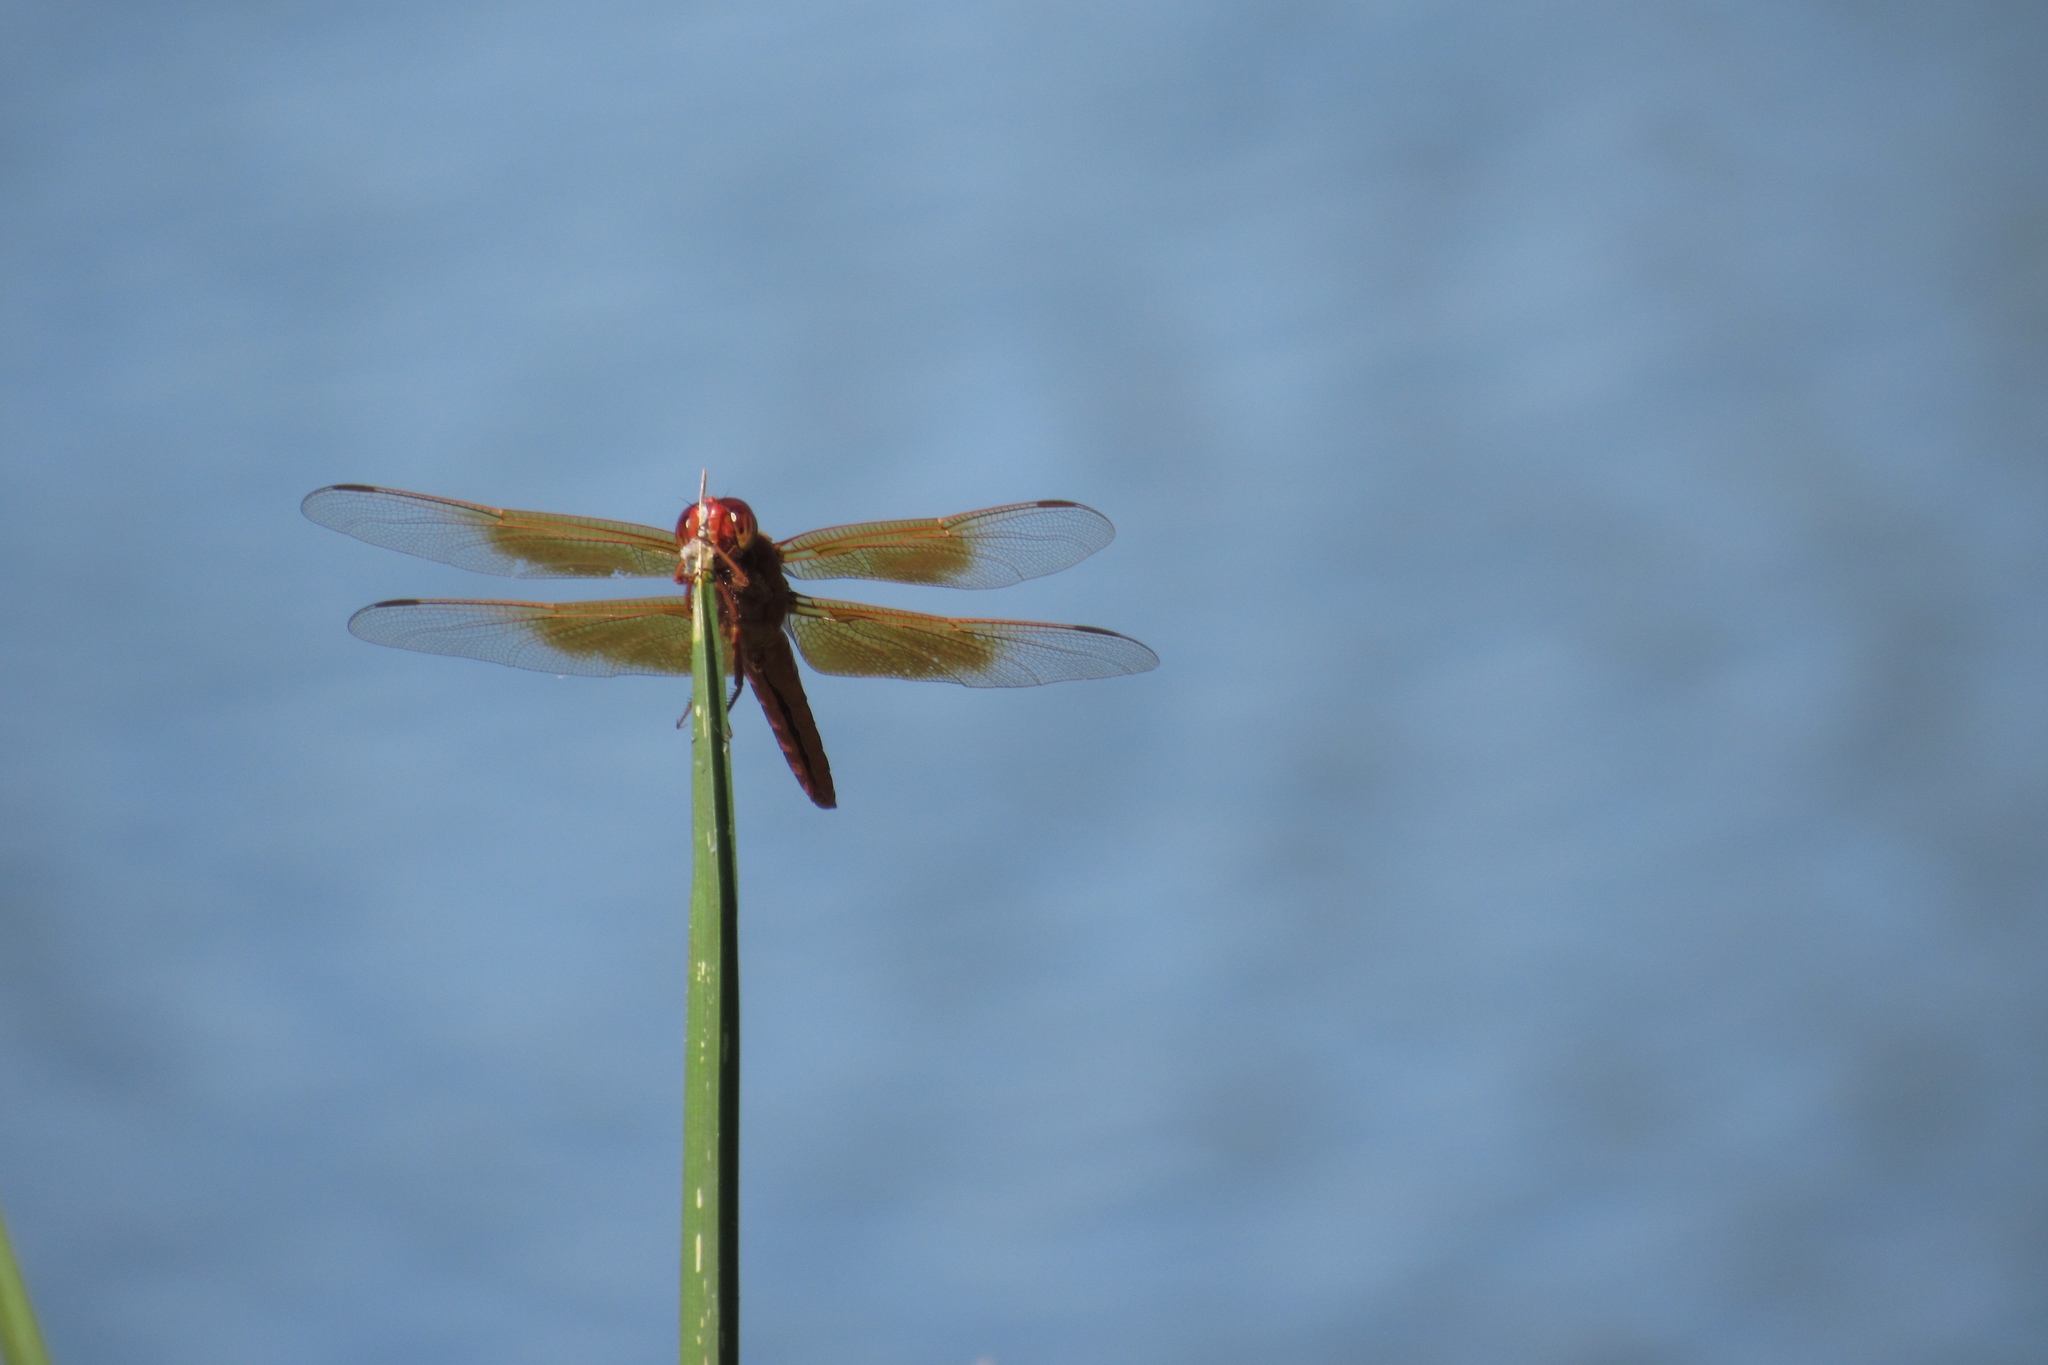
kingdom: Animalia
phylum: Arthropoda
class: Insecta
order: Odonata
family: Libellulidae
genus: Libellula
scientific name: Libellula saturata
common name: Flame skimmer
